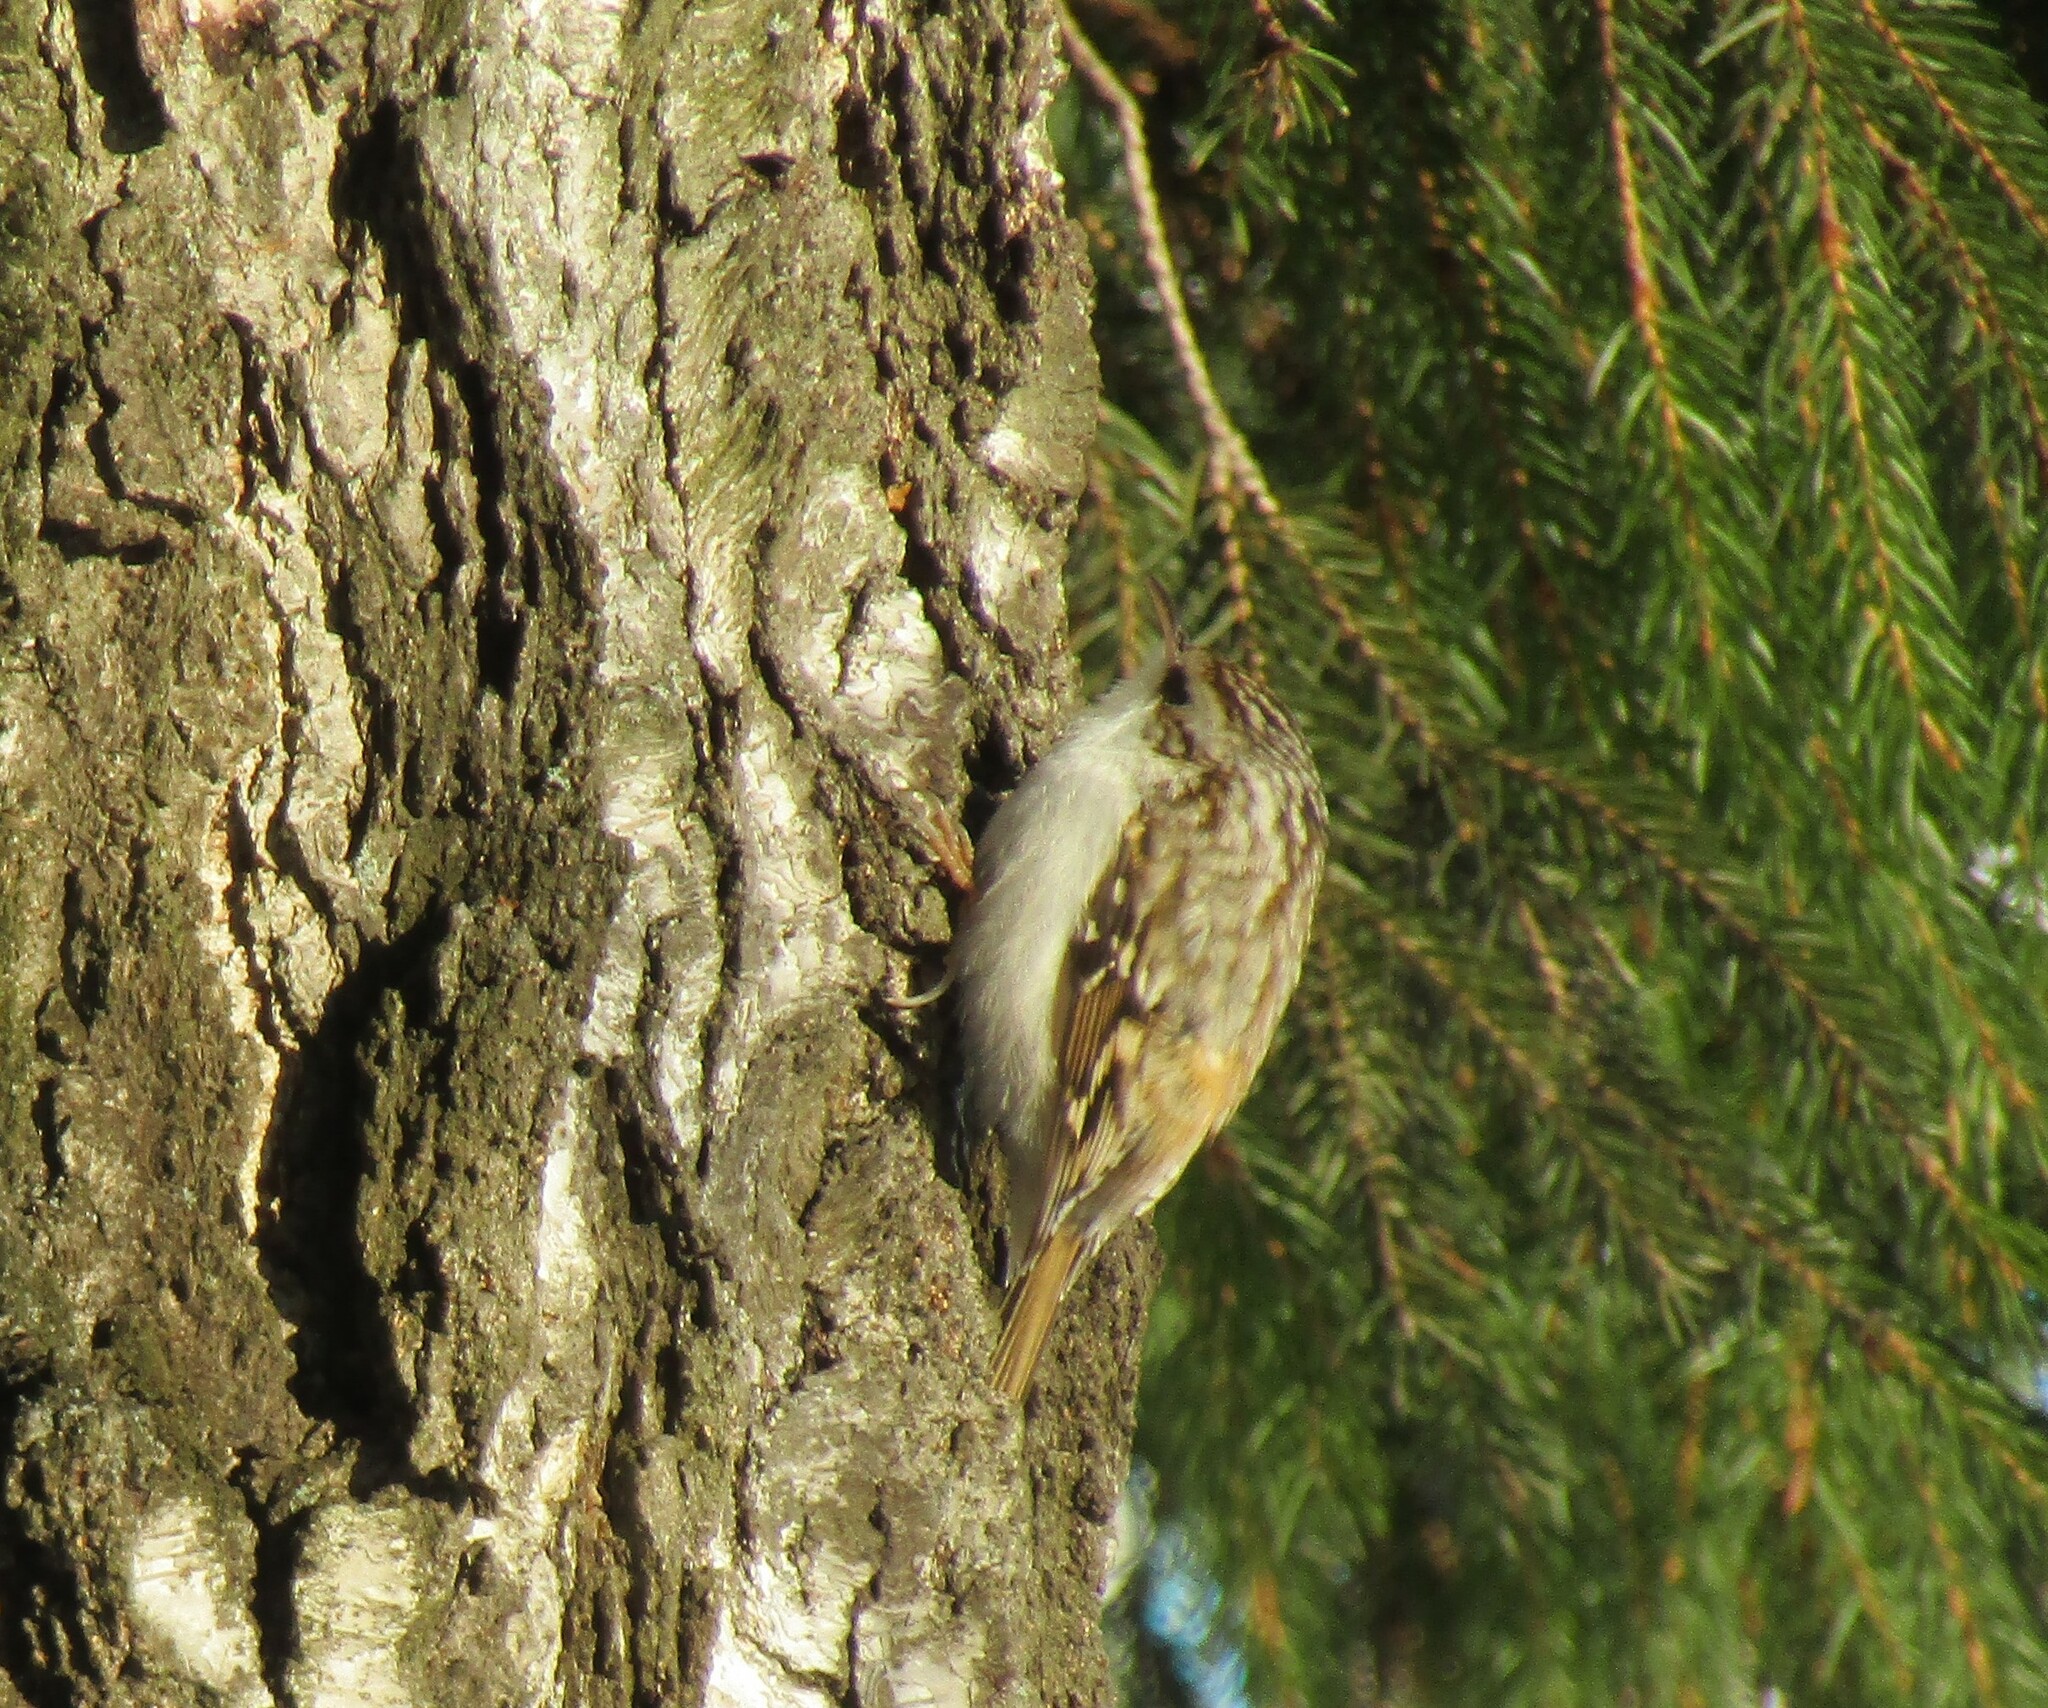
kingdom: Animalia
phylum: Chordata
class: Aves
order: Passeriformes
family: Certhiidae
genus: Certhia
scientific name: Certhia familiaris
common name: Eurasian treecreeper
